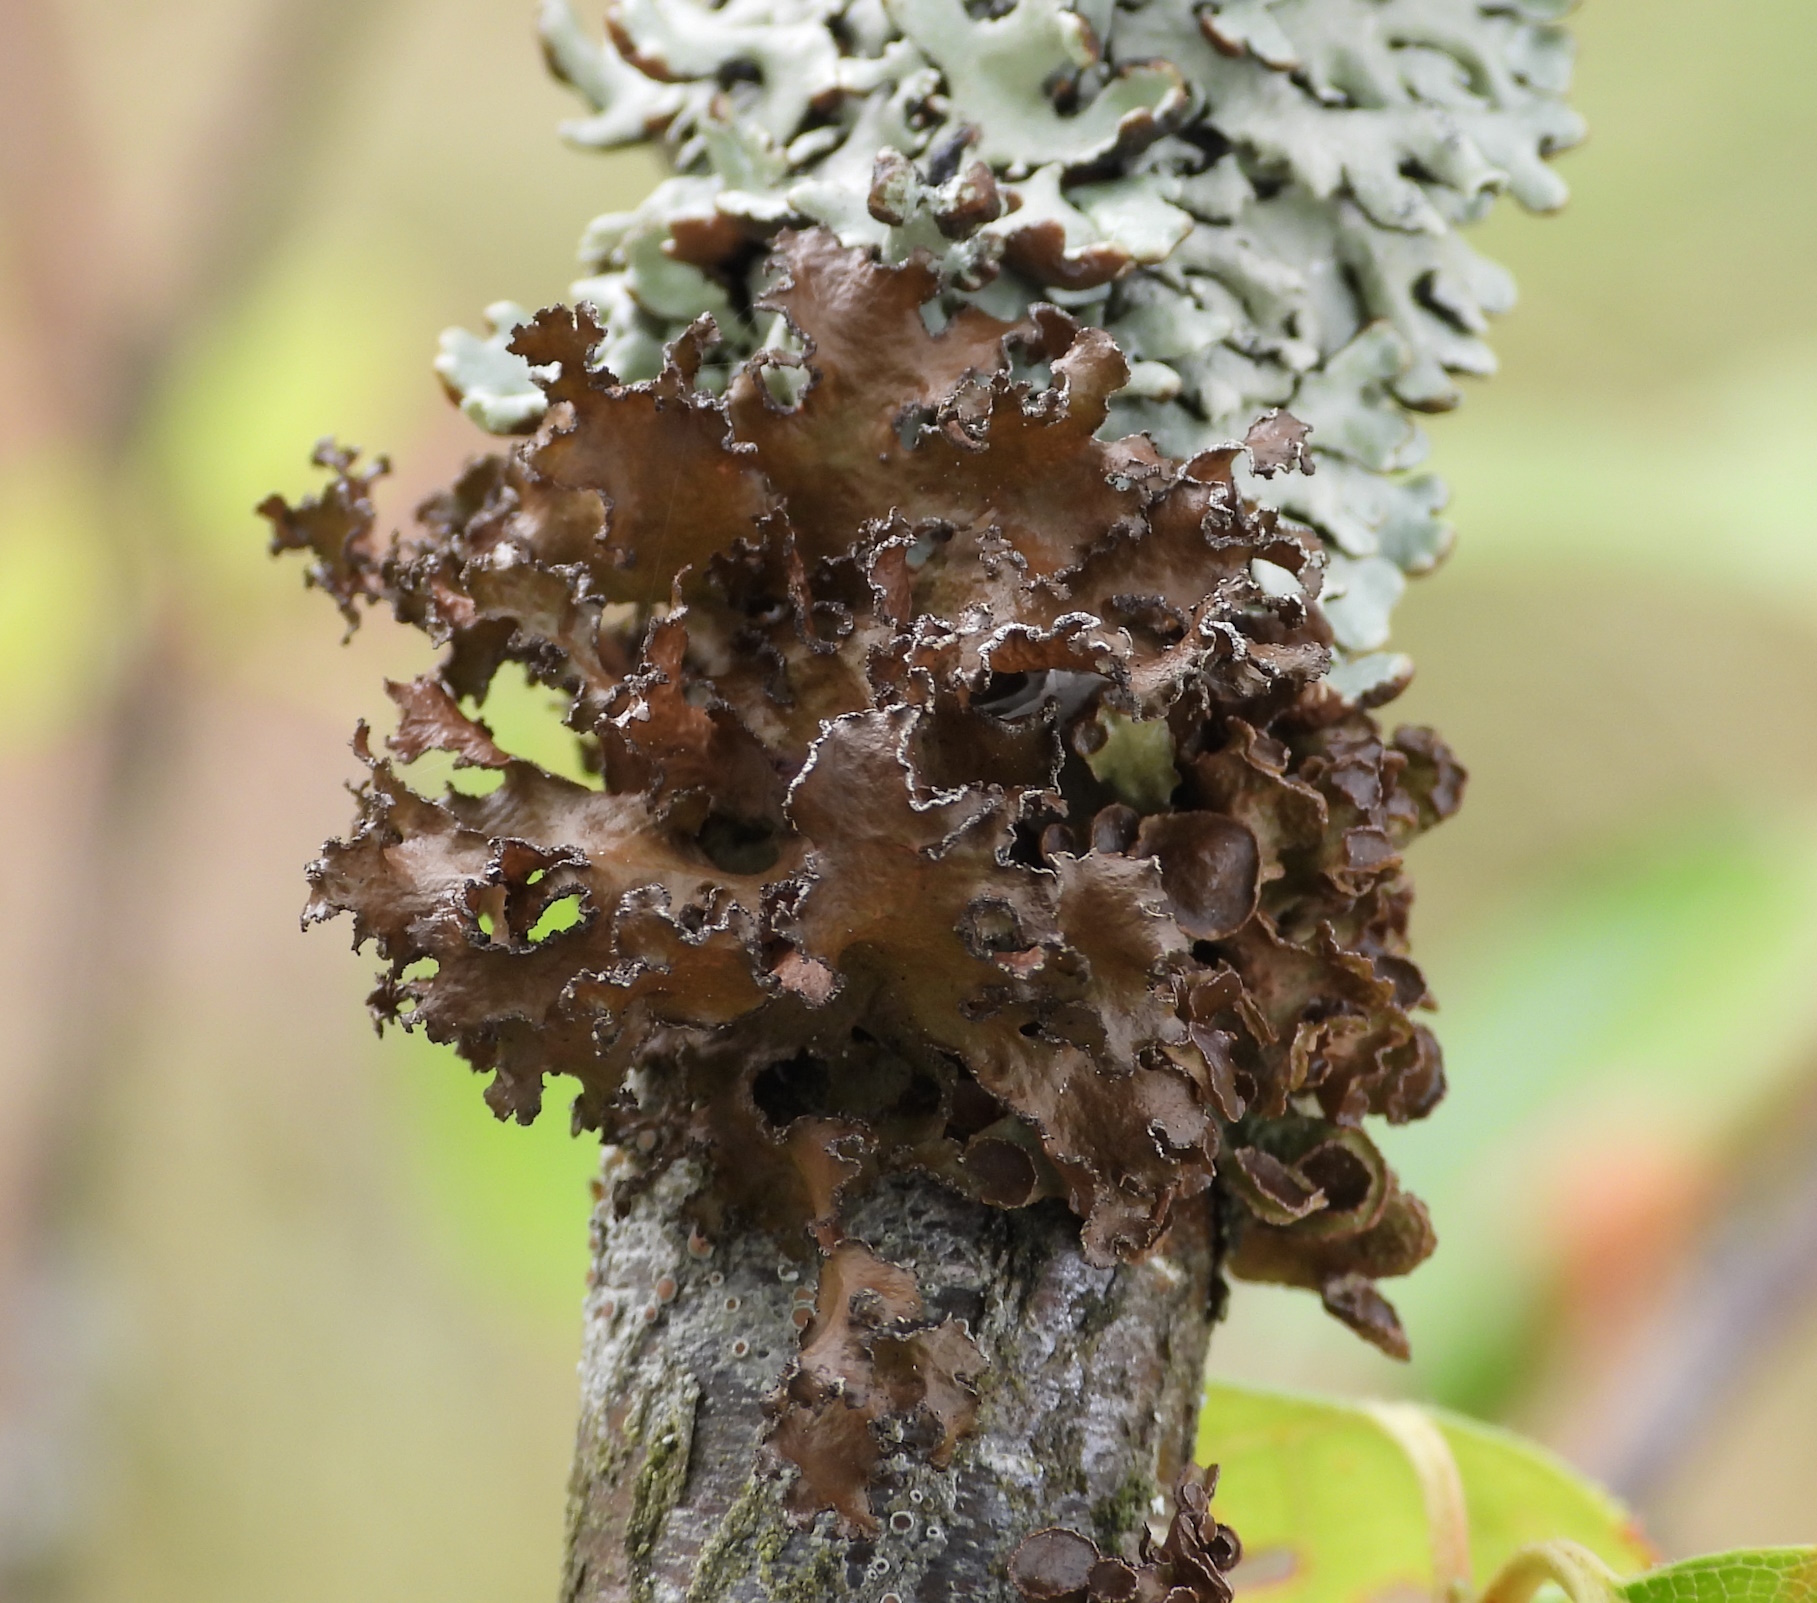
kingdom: Fungi
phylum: Ascomycota
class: Lecanoromycetes
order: Lecanorales
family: Parmeliaceae
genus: Nephromopsis
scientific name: Nephromopsis chlorophylla
